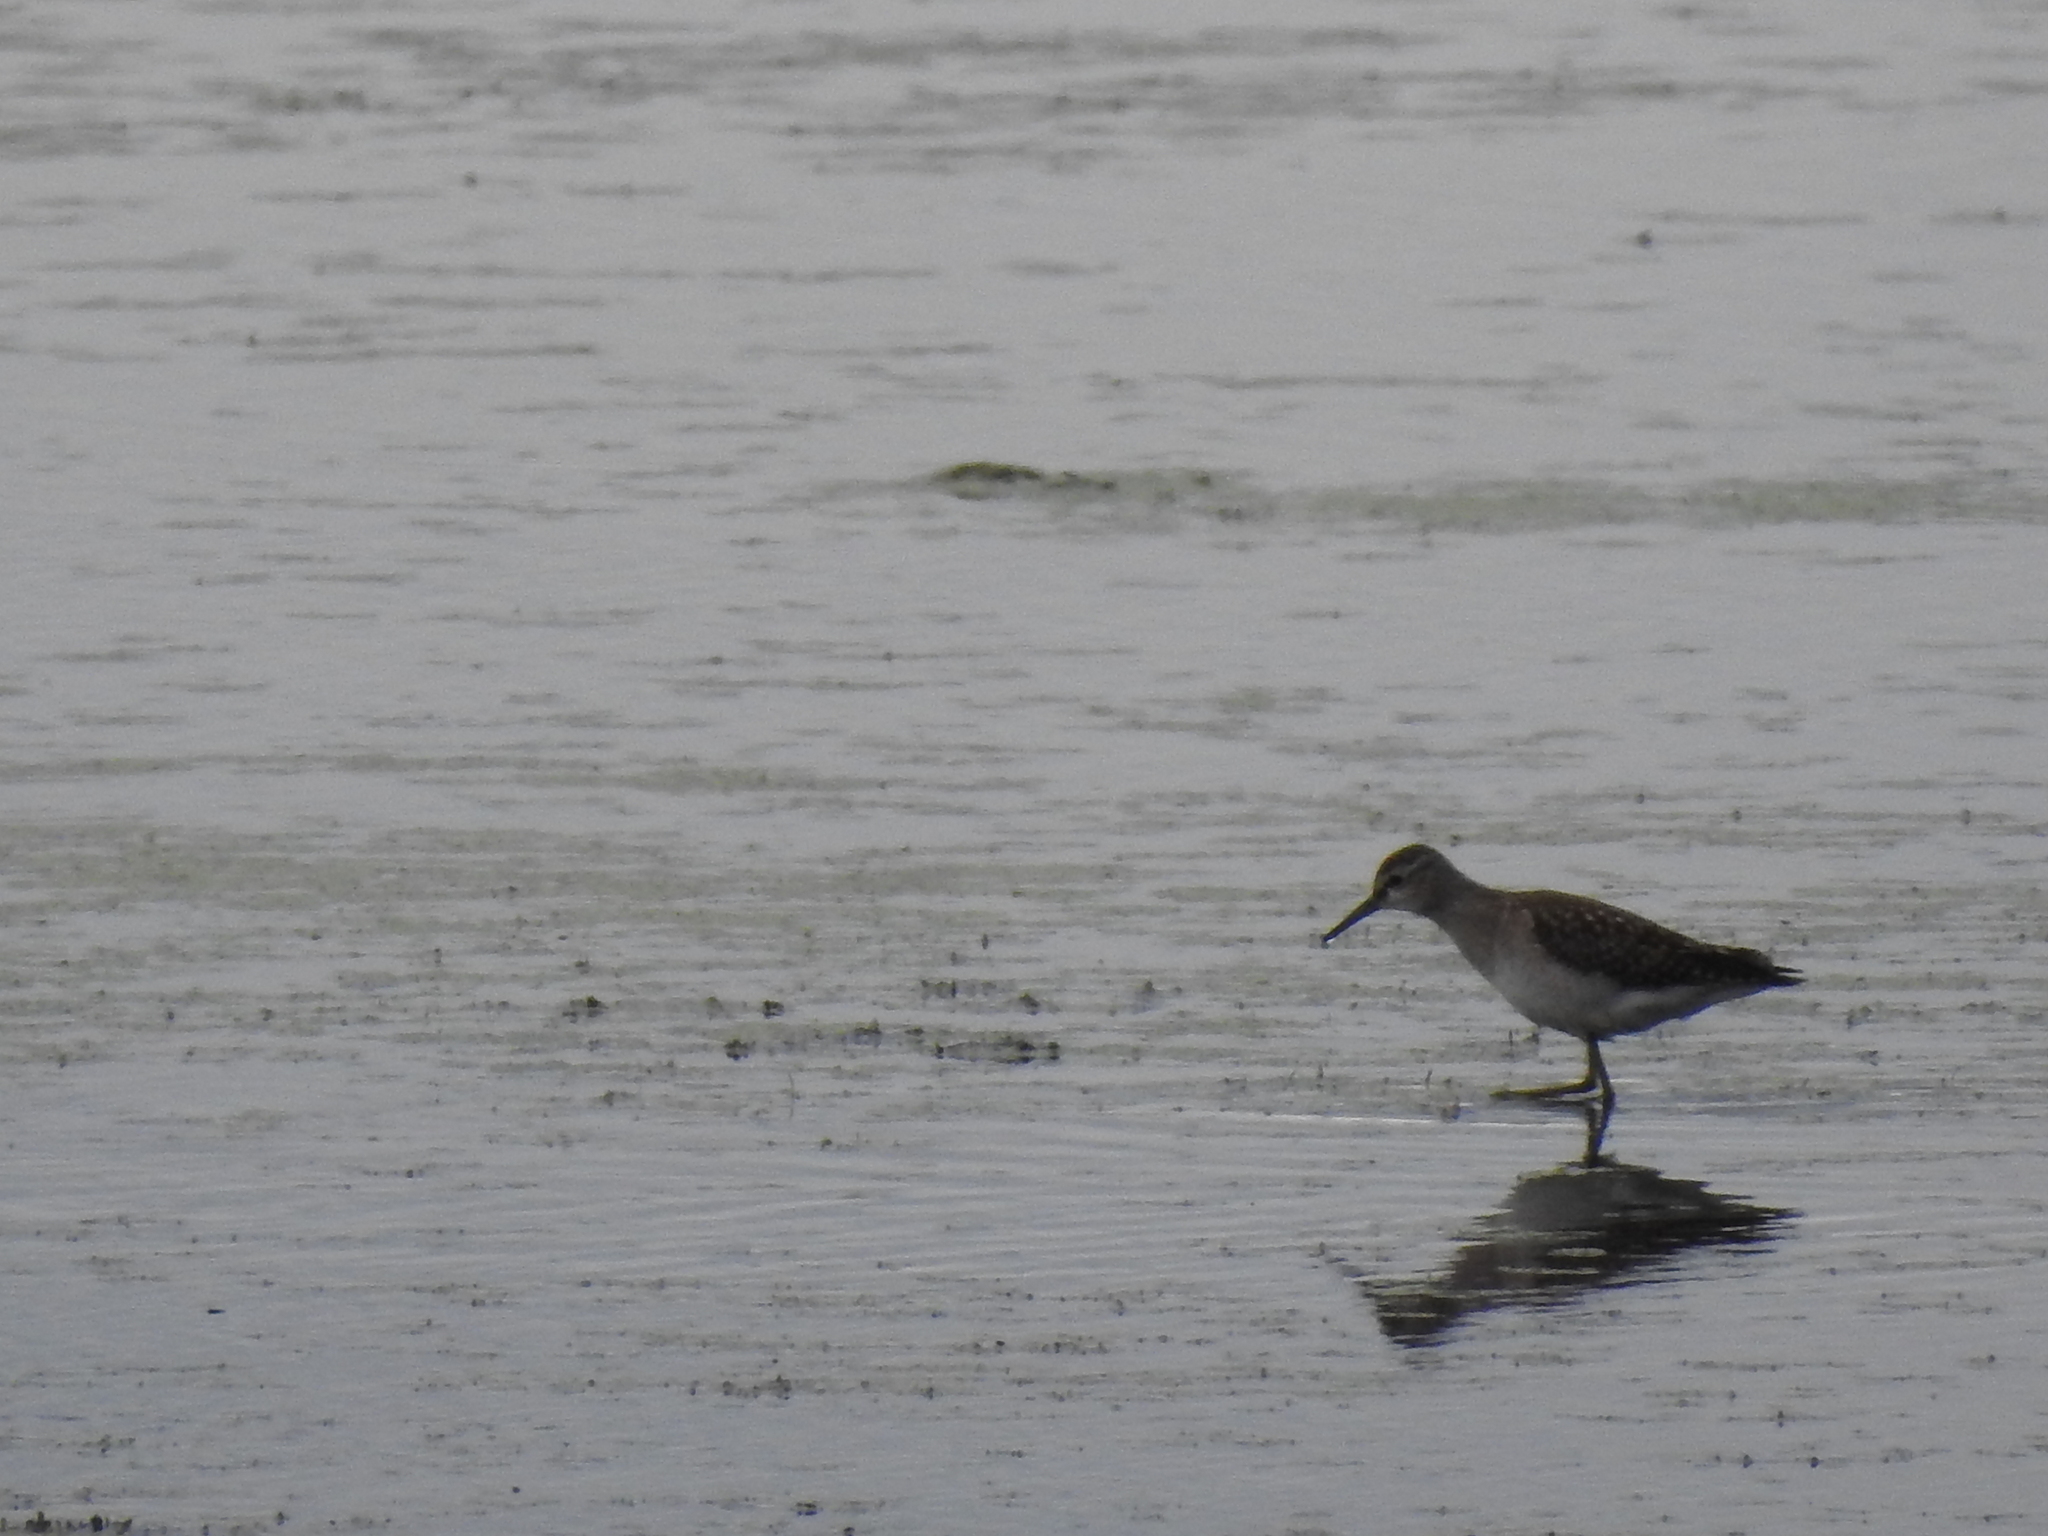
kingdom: Animalia
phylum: Chordata
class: Aves
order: Charadriiformes
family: Scolopacidae
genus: Tringa
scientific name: Tringa glareola
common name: Wood sandpiper
